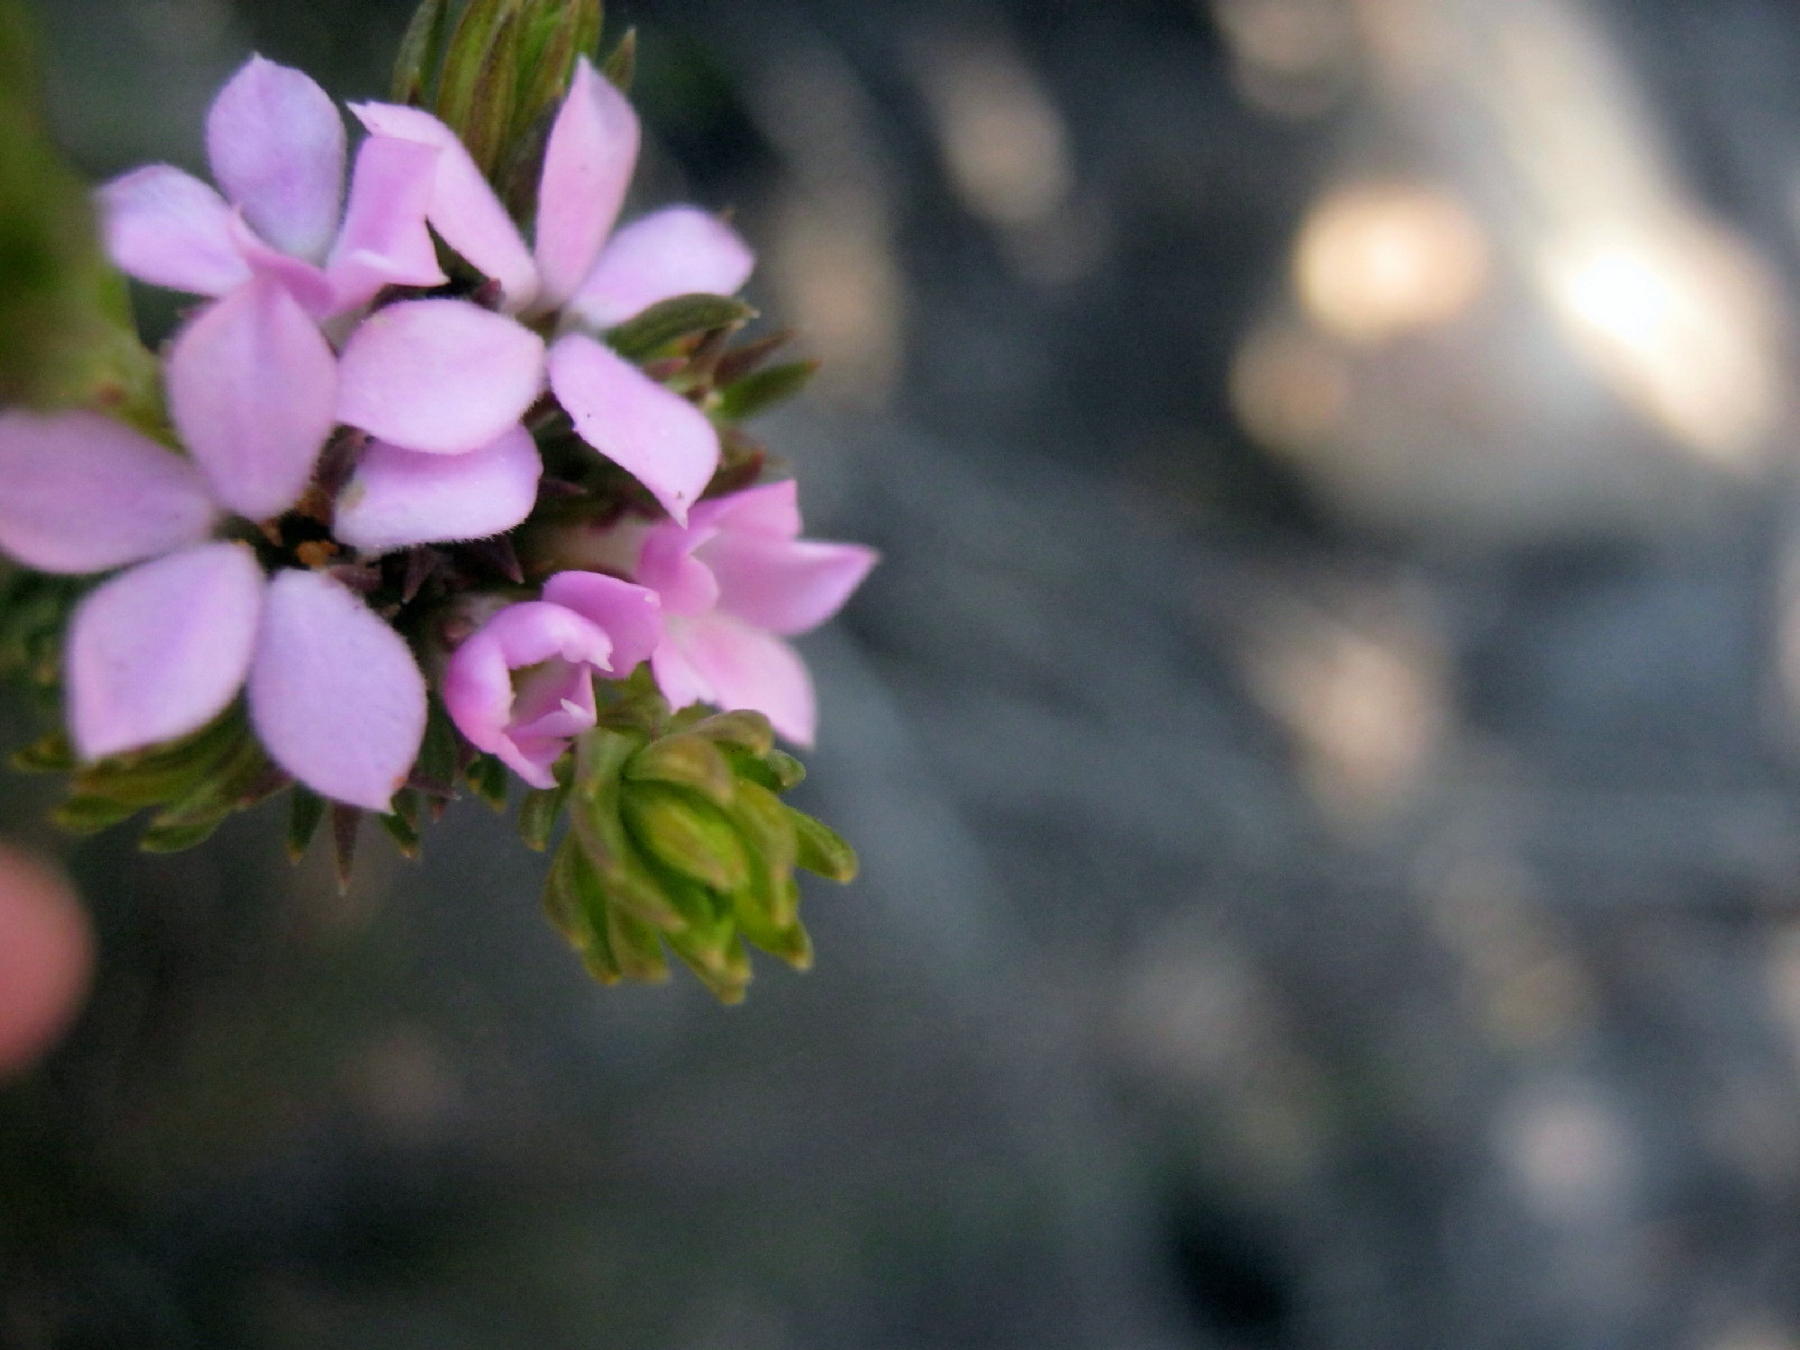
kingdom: Plantae
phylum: Tracheophyta
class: Magnoliopsida
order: Sapindales
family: Rutaceae
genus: Acmadenia
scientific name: Acmadenia alternifolia
